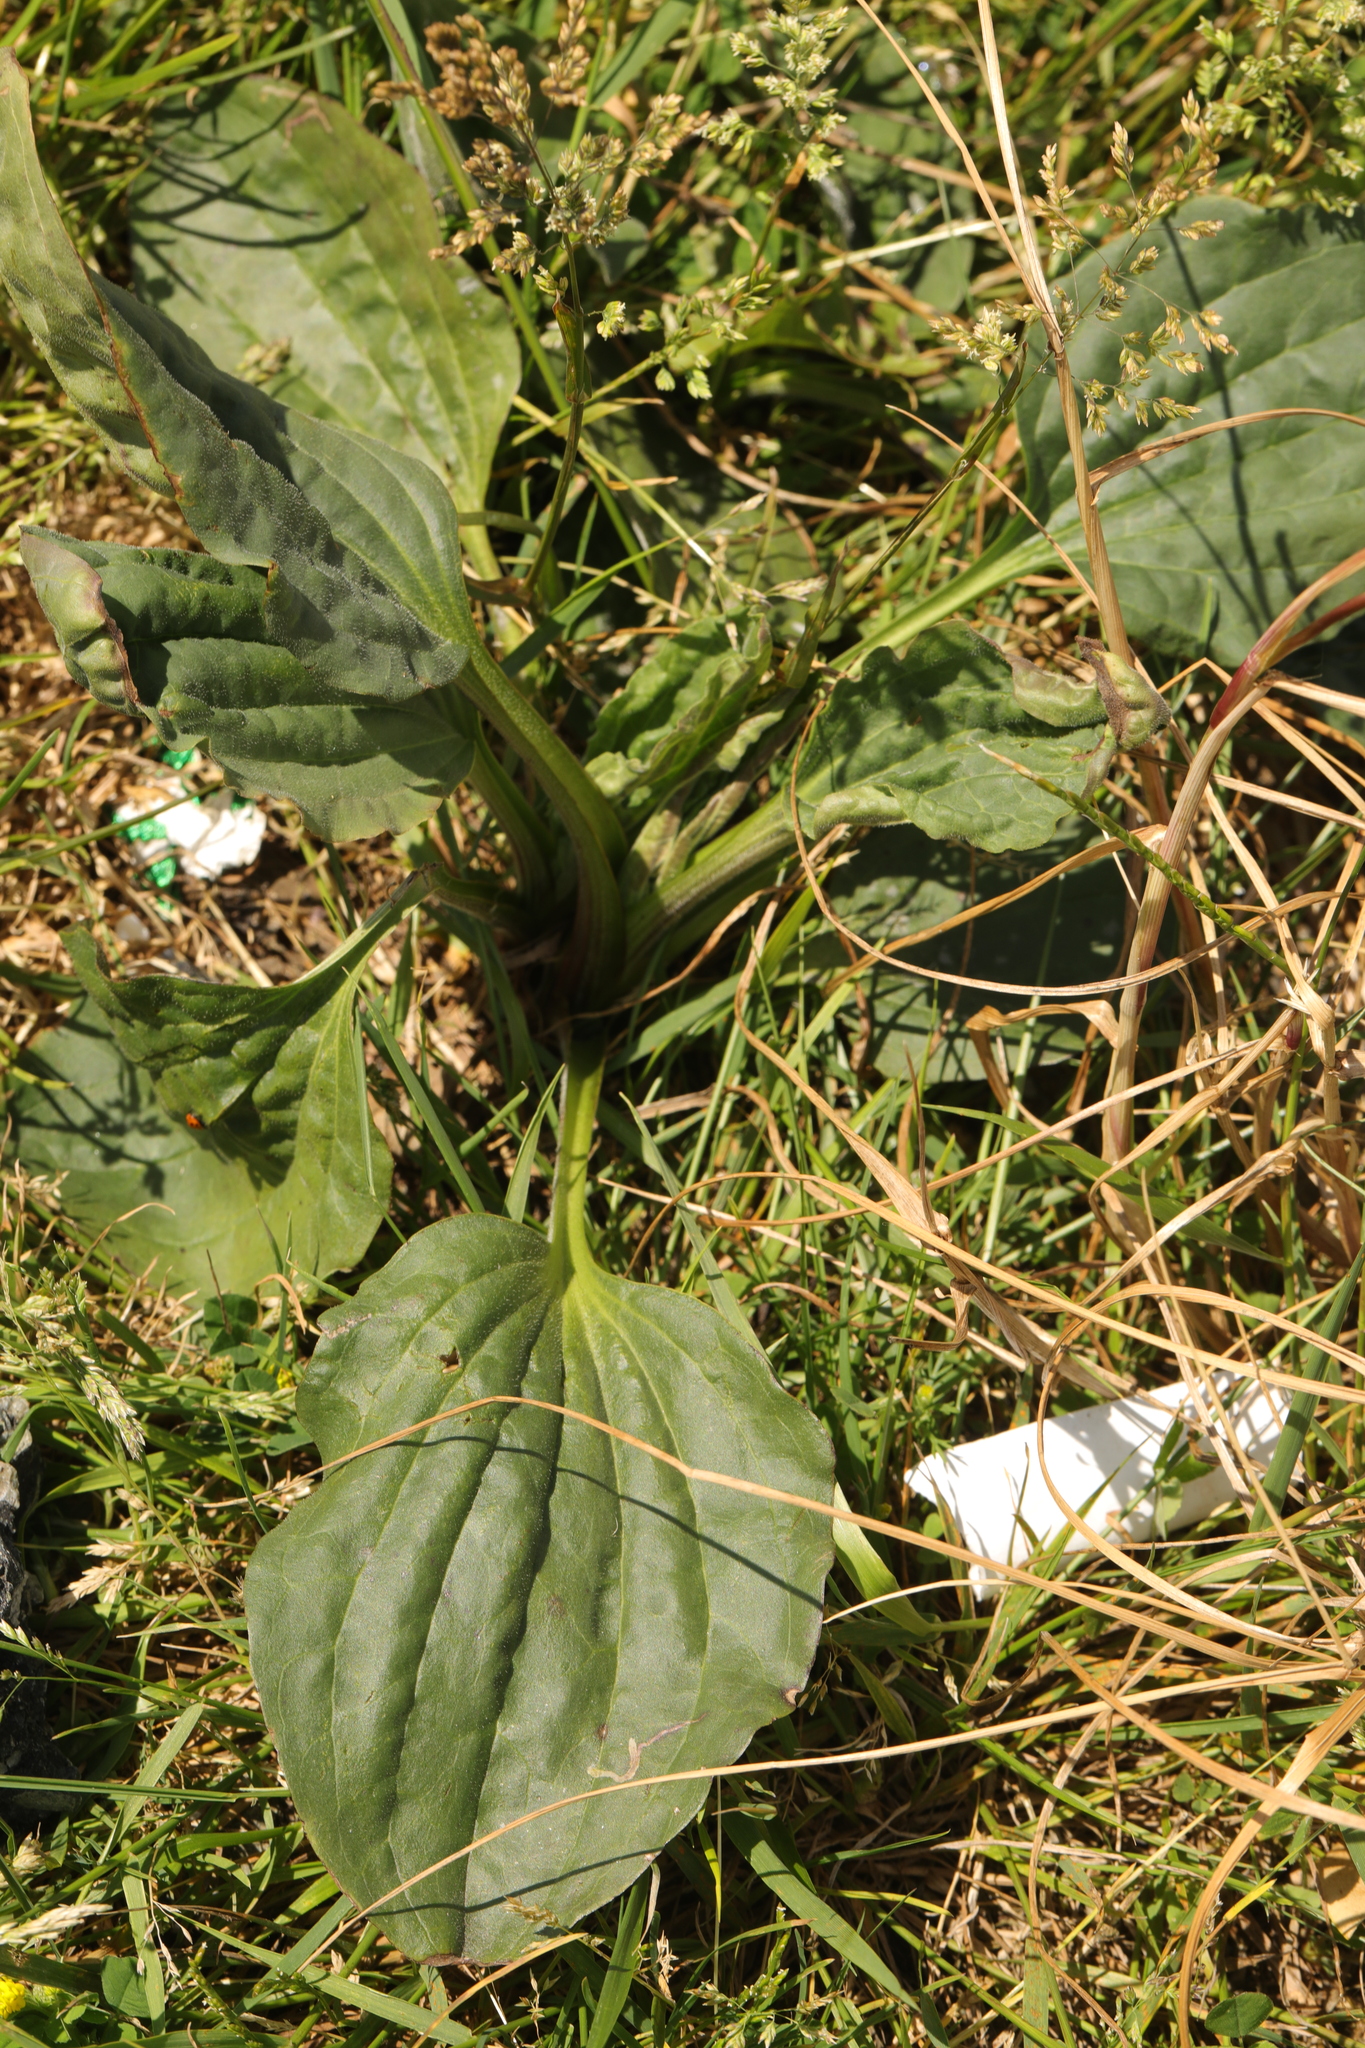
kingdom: Plantae
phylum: Tracheophyta
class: Magnoliopsida
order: Lamiales
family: Plantaginaceae
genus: Plantago
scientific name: Plantago major
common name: Common plantain
